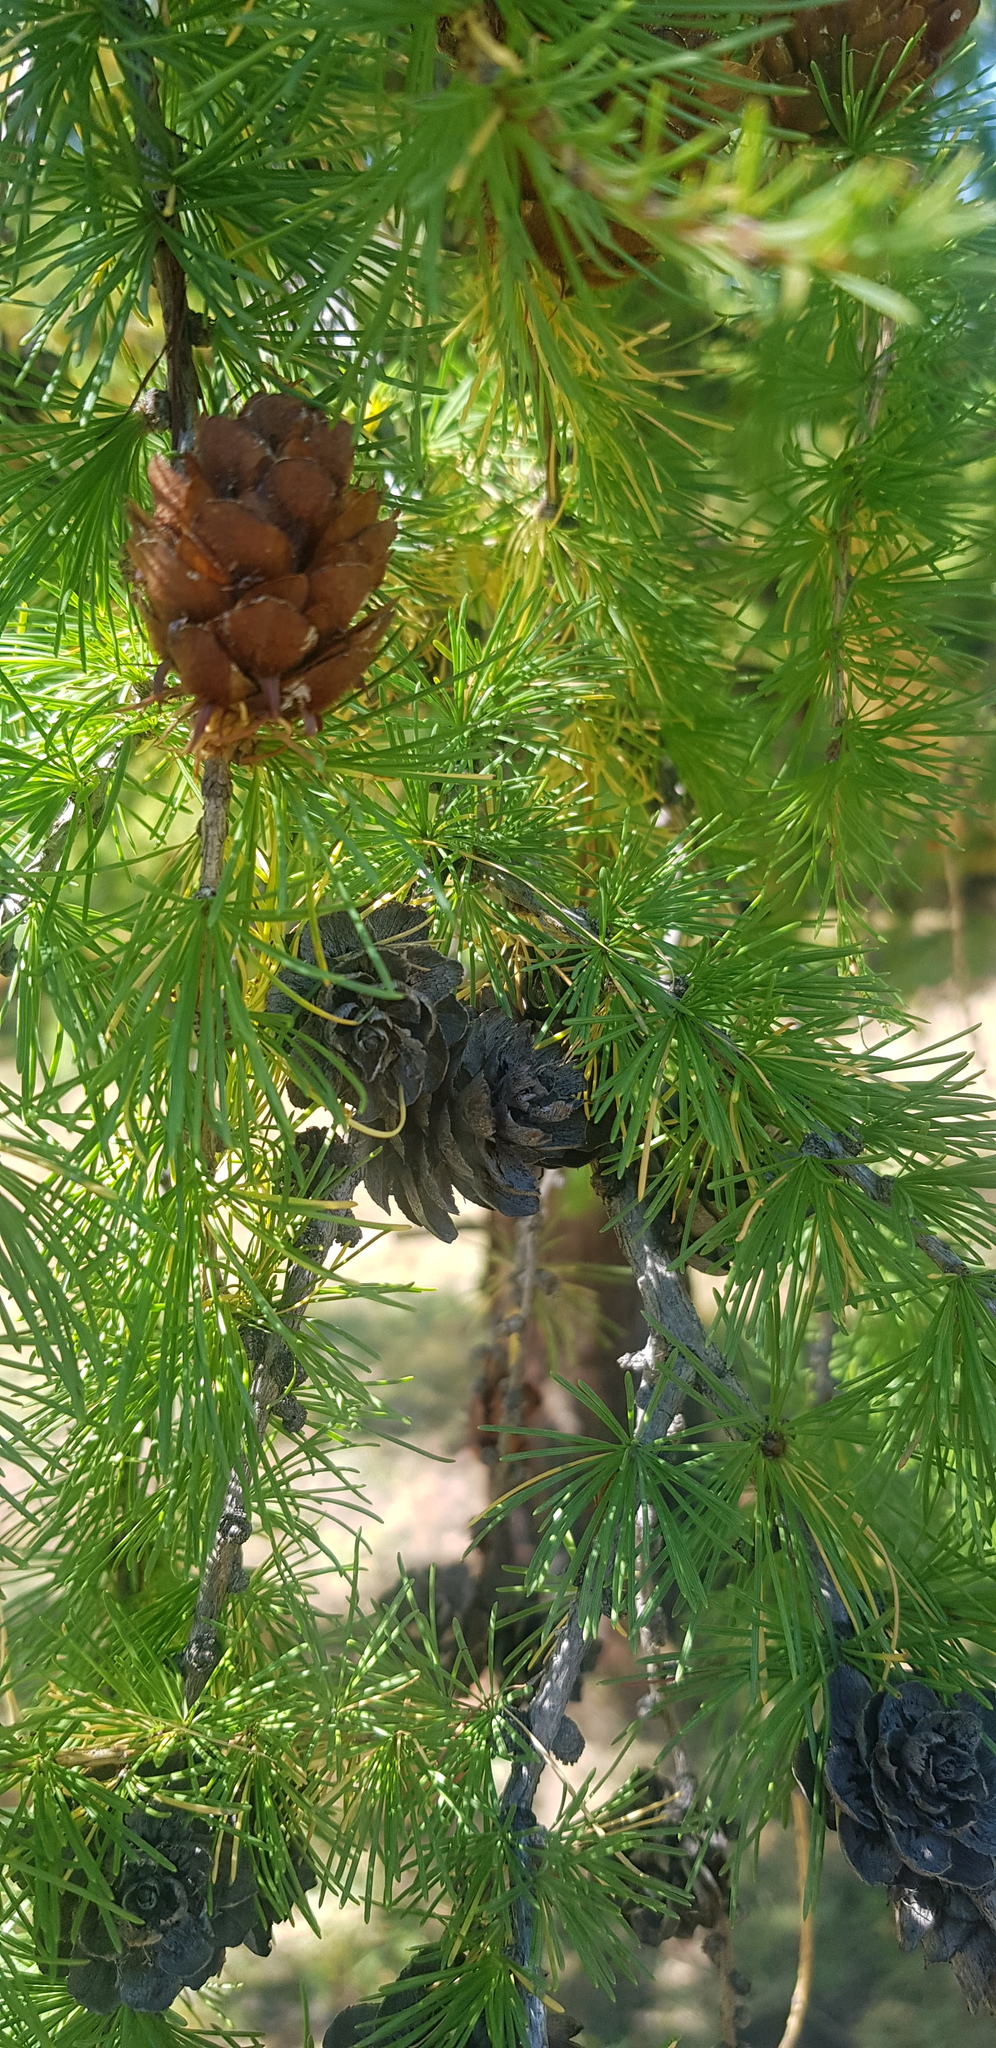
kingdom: Plantae
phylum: Tracheophyta
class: Pinopsida
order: Pinales
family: Pinaceae
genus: Larix
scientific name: Larix sibirica
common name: Siberian larch
